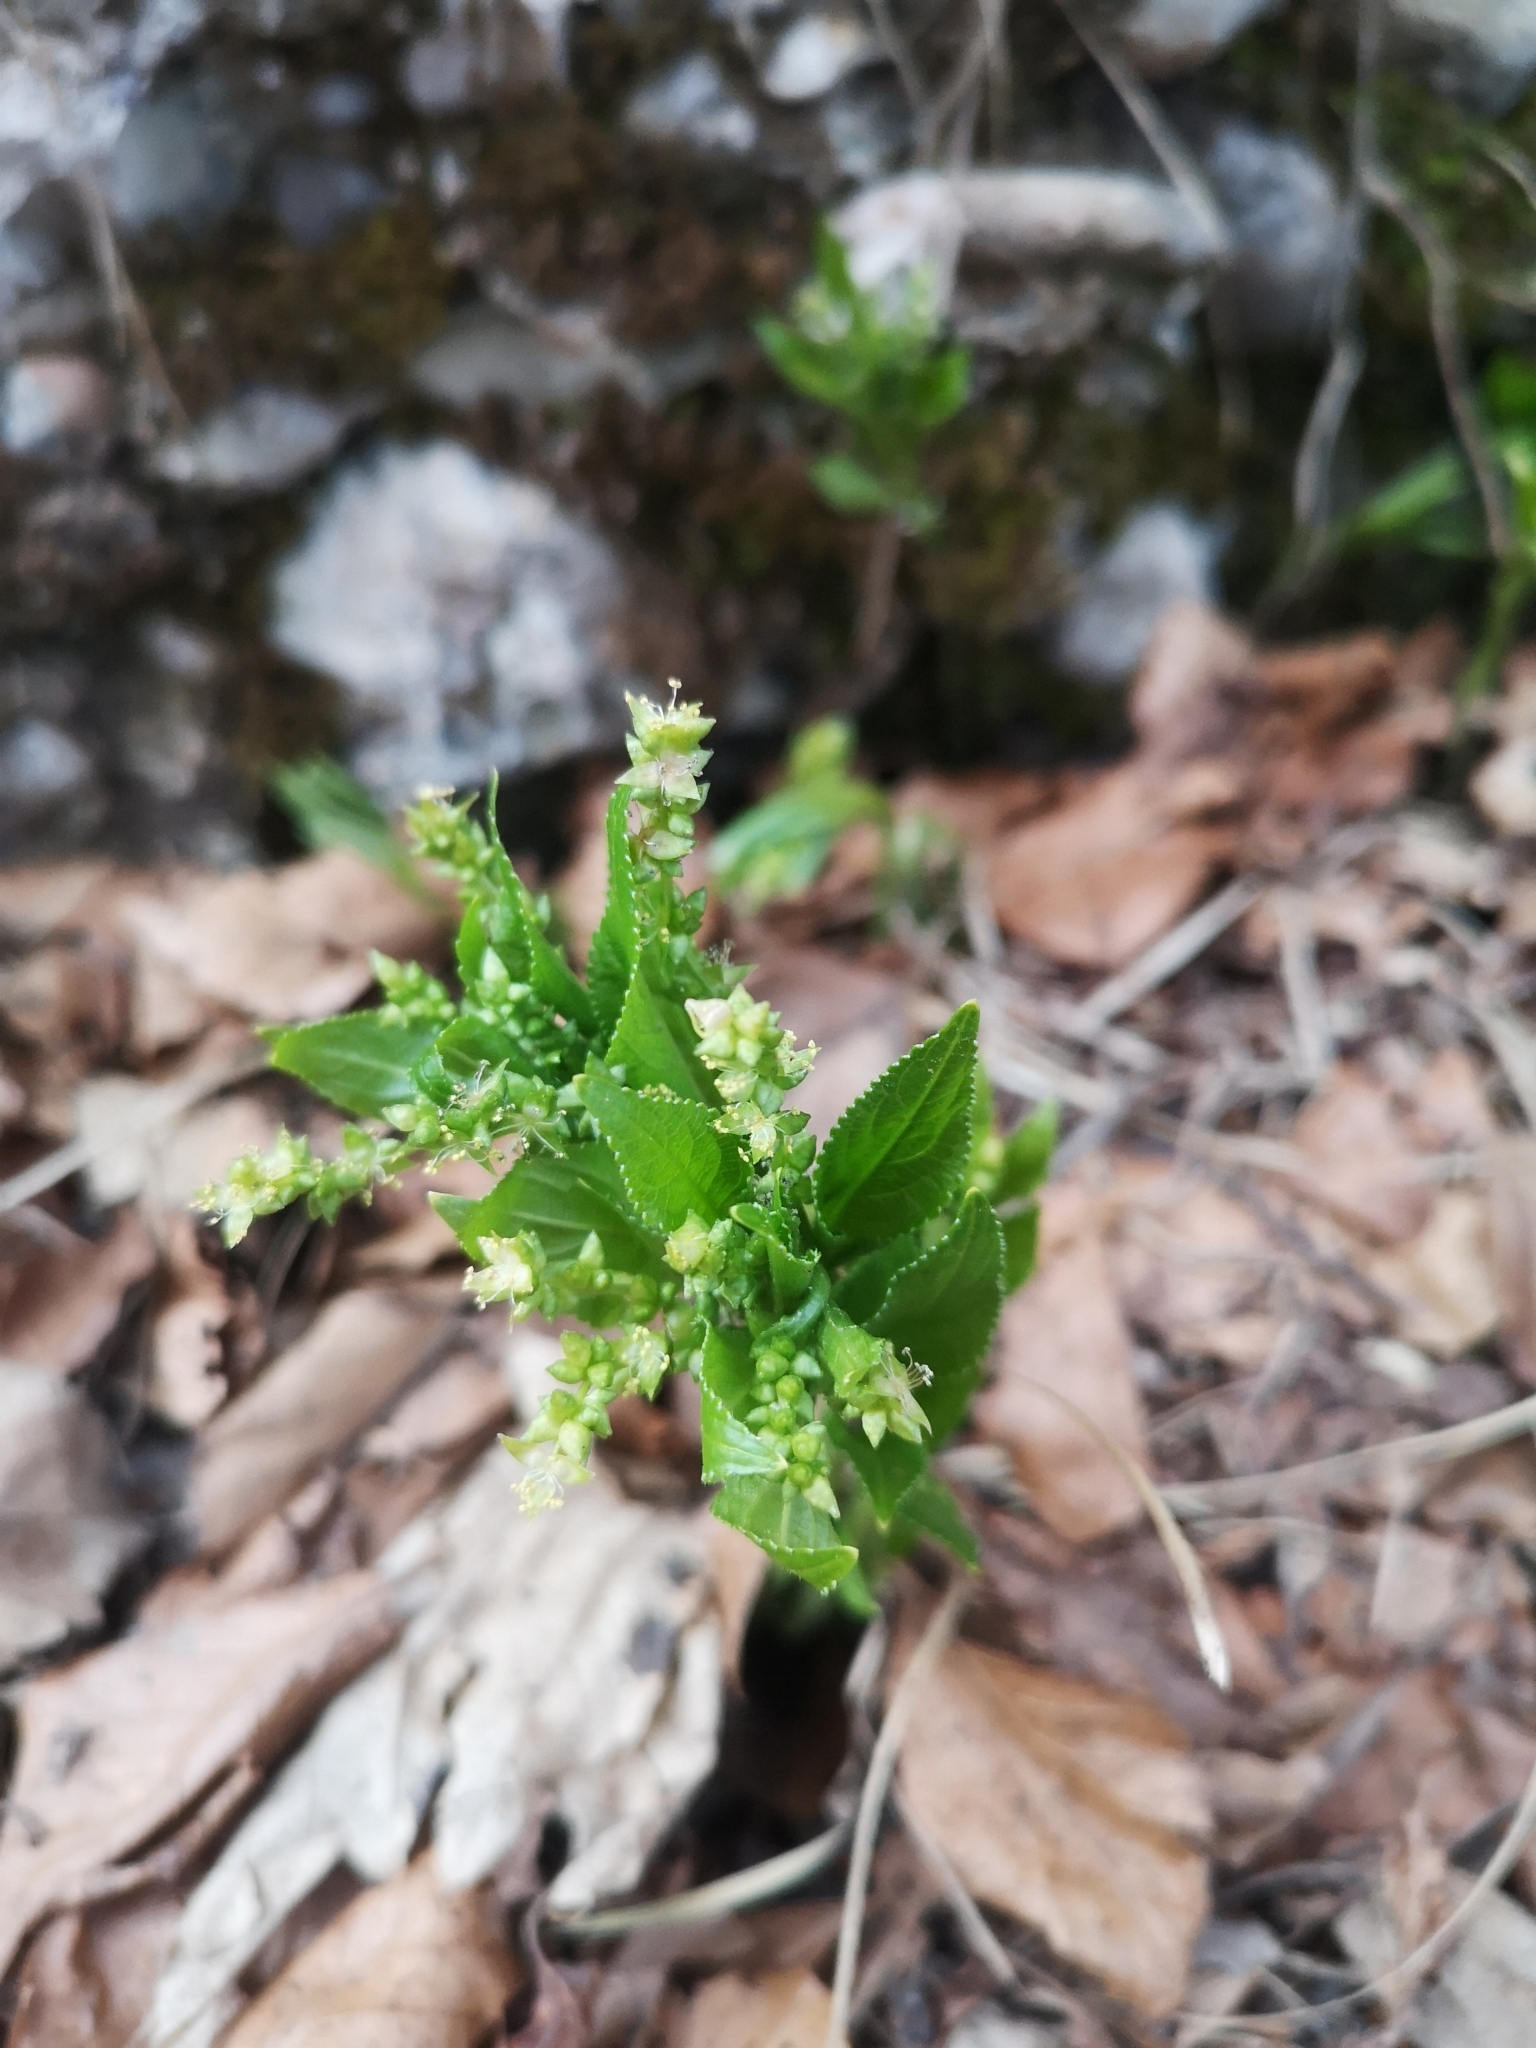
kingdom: Plantae
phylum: Tracheophyta
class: Magnoliopsida
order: Malpighiales
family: Euphorbiaceae
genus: Mercurialis
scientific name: Mercurialis perennis
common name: Dog mercury
